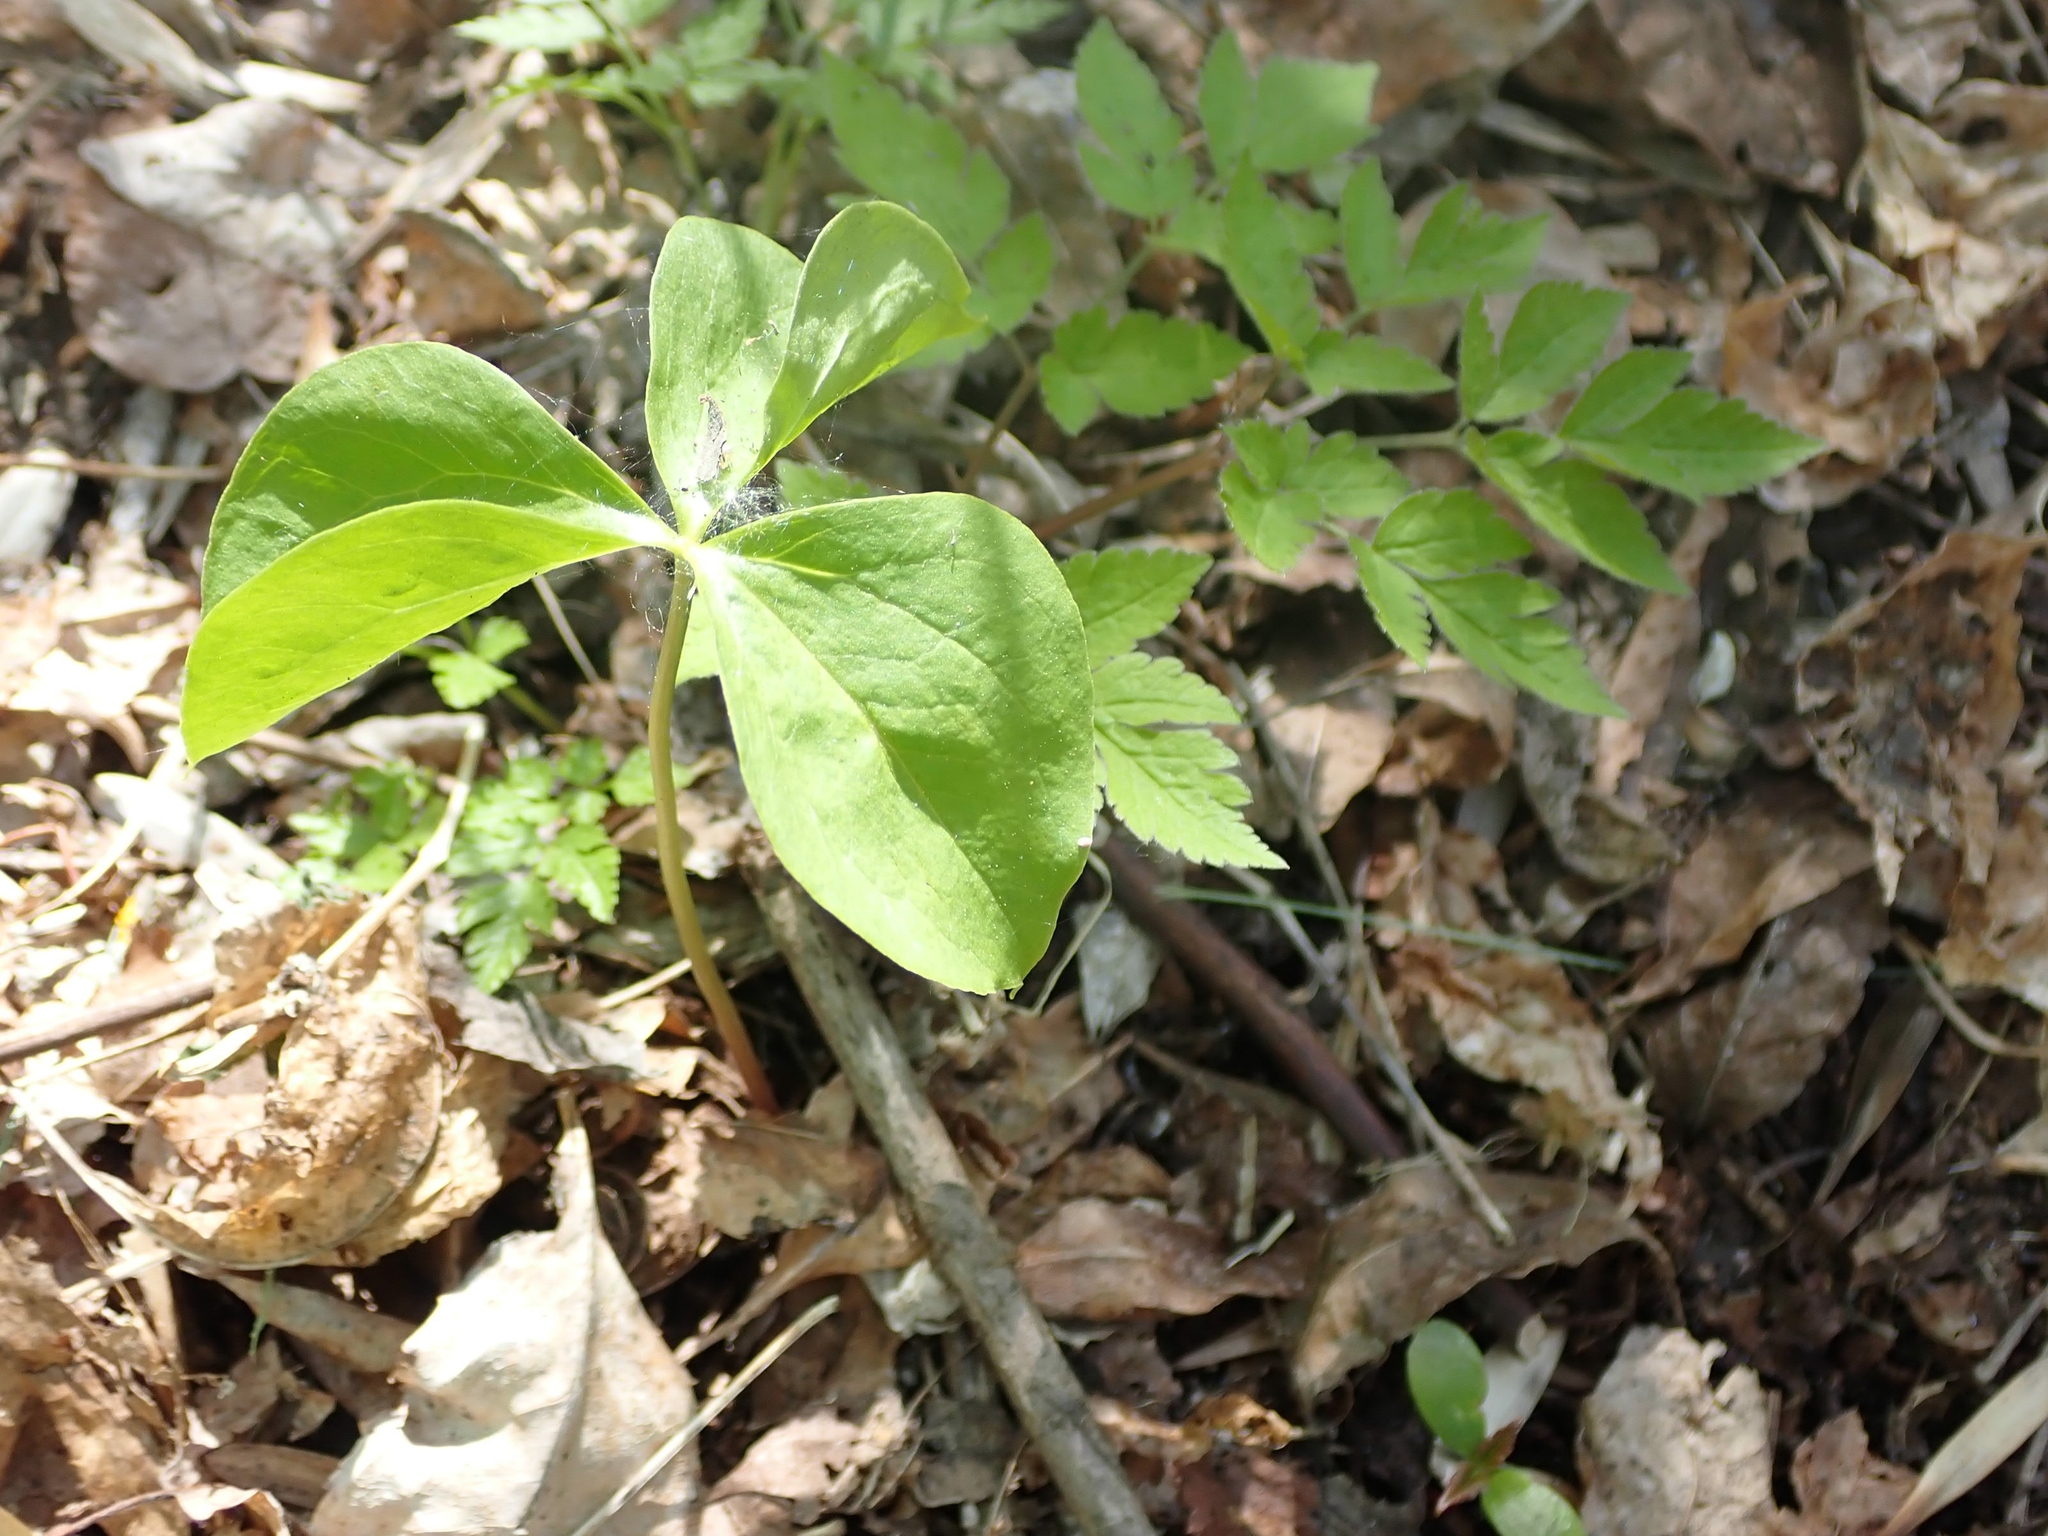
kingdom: Plantae
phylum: Tracheophyta
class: Liliopsida
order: Liliales
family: Melanthiaceae
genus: Trillium
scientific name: Trillium cernuum
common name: Nodding trillium
